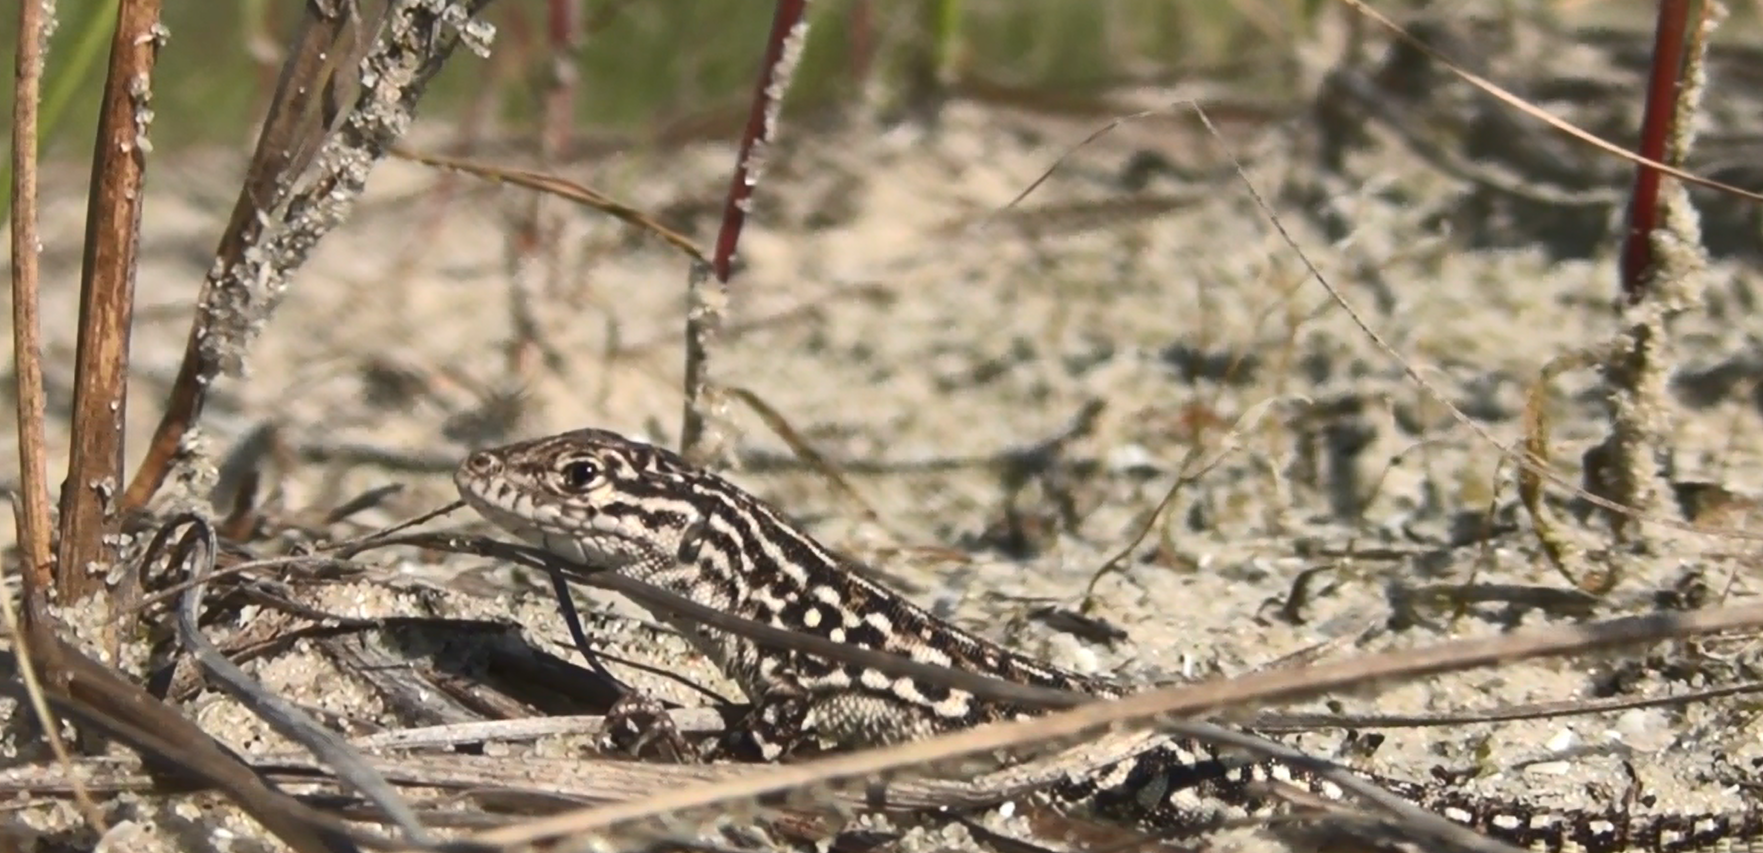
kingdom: Animalia
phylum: Chordata
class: Squamata
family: Lacertidae
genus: Eremias
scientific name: Eremias arguta
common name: Racerunner
